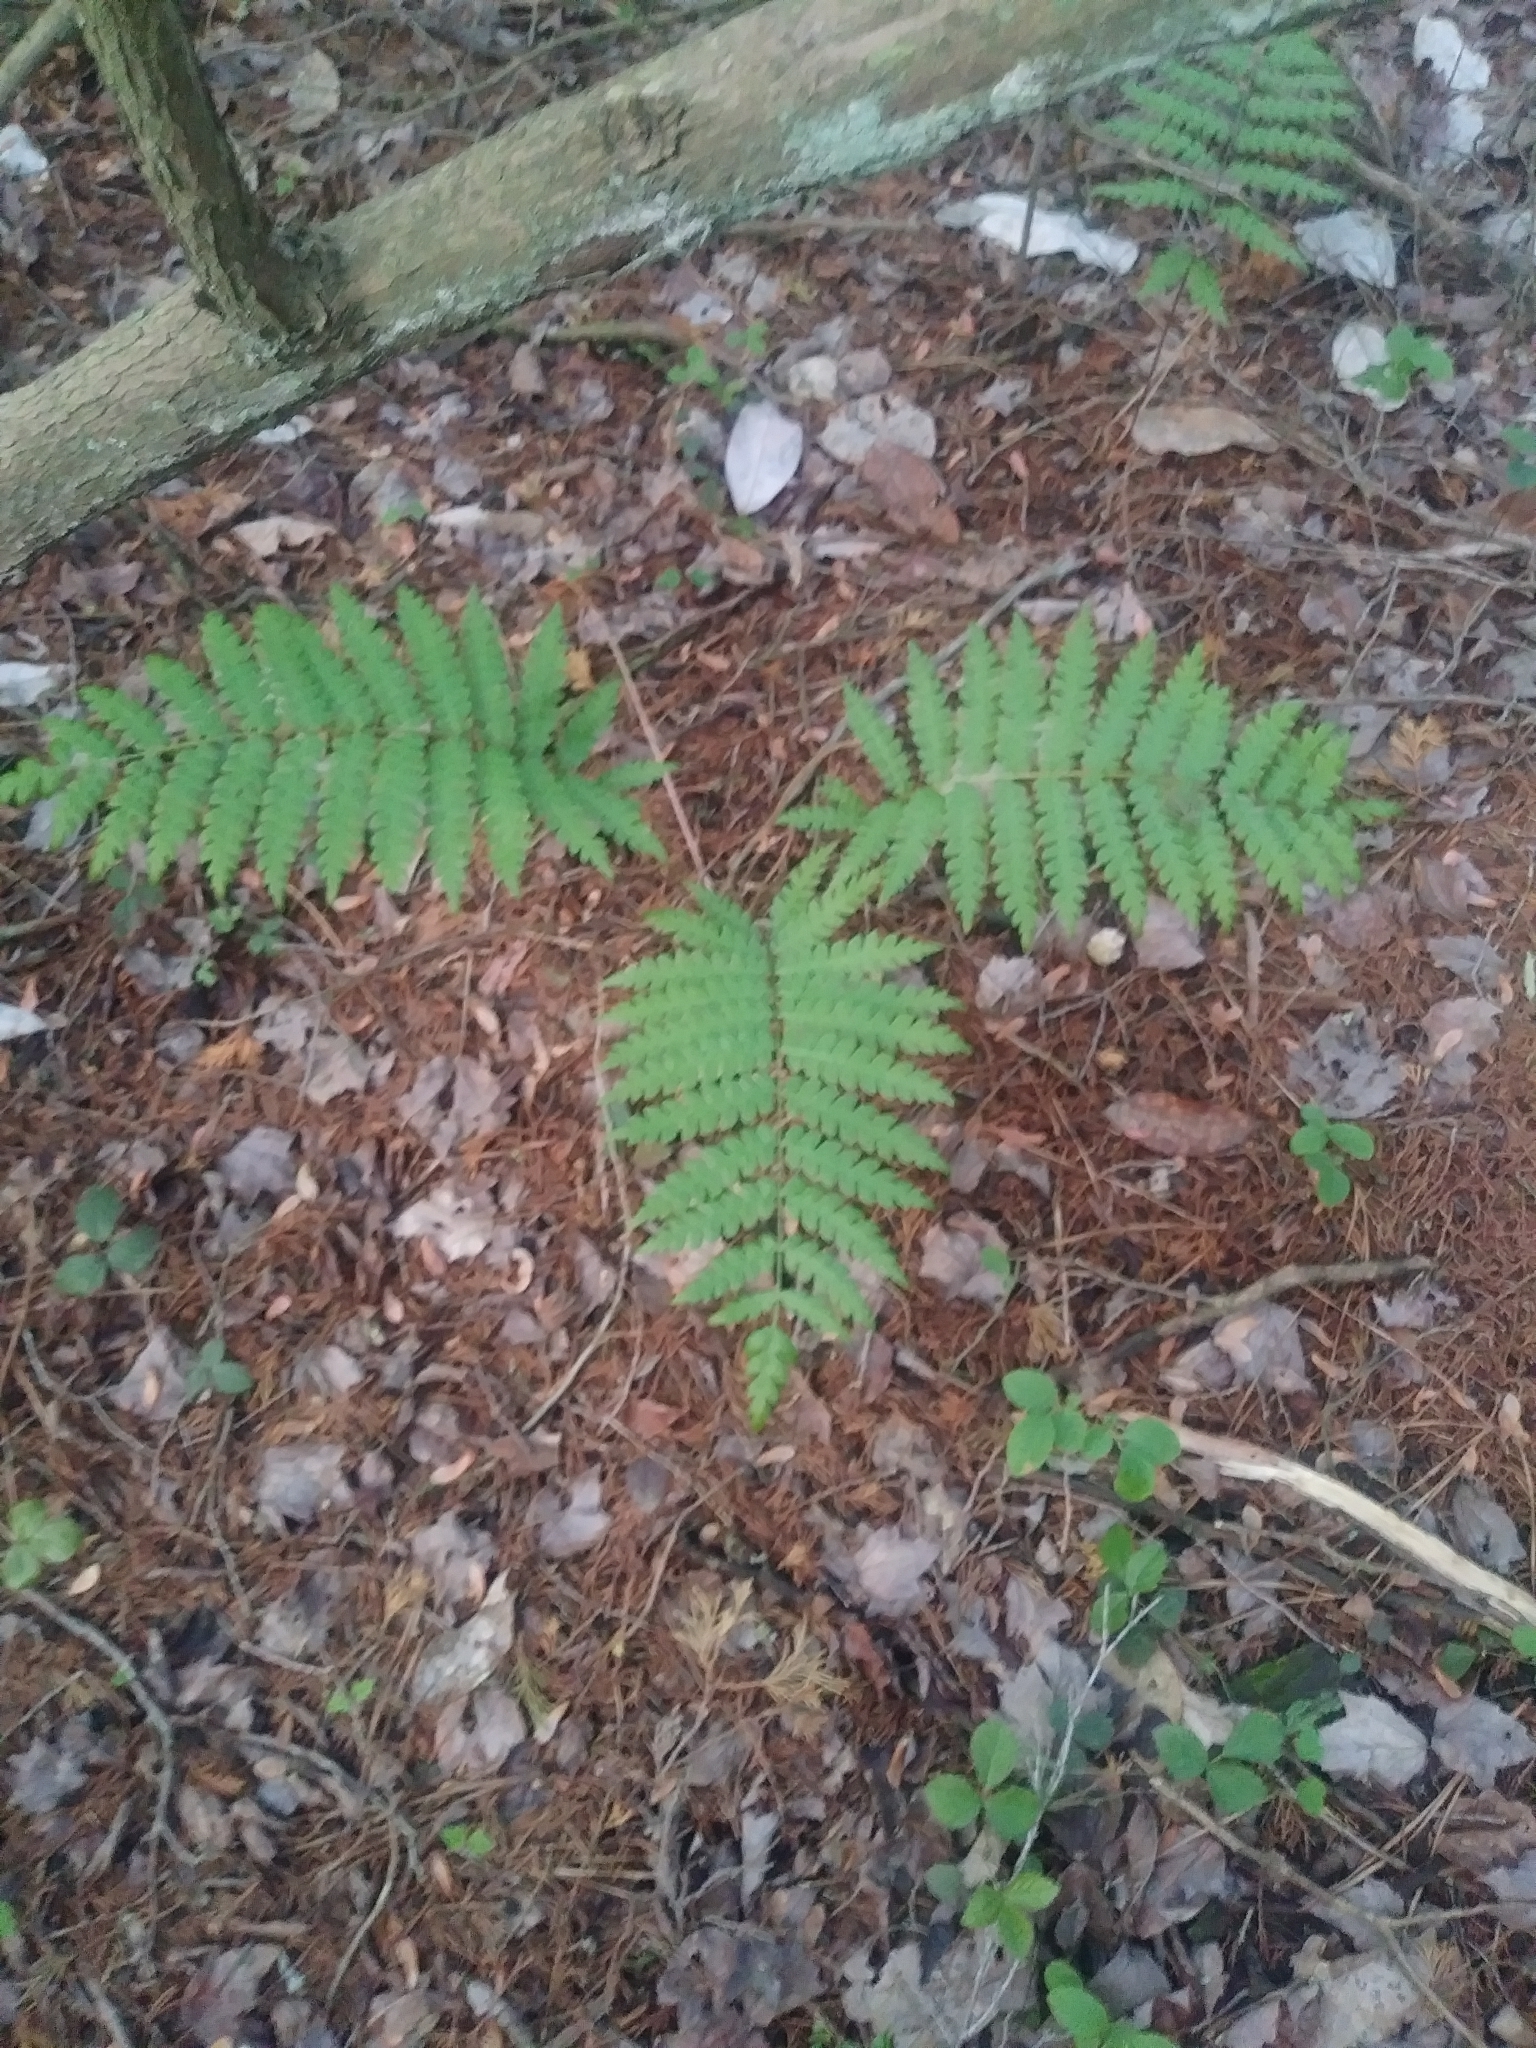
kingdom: Plantae
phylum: Tracheophyta
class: Polypodiopsida
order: Osmundales
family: Osmundaceae
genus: Osmundastrum
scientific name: Osmundastrum cinnamomeum
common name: Cinnamon fern
